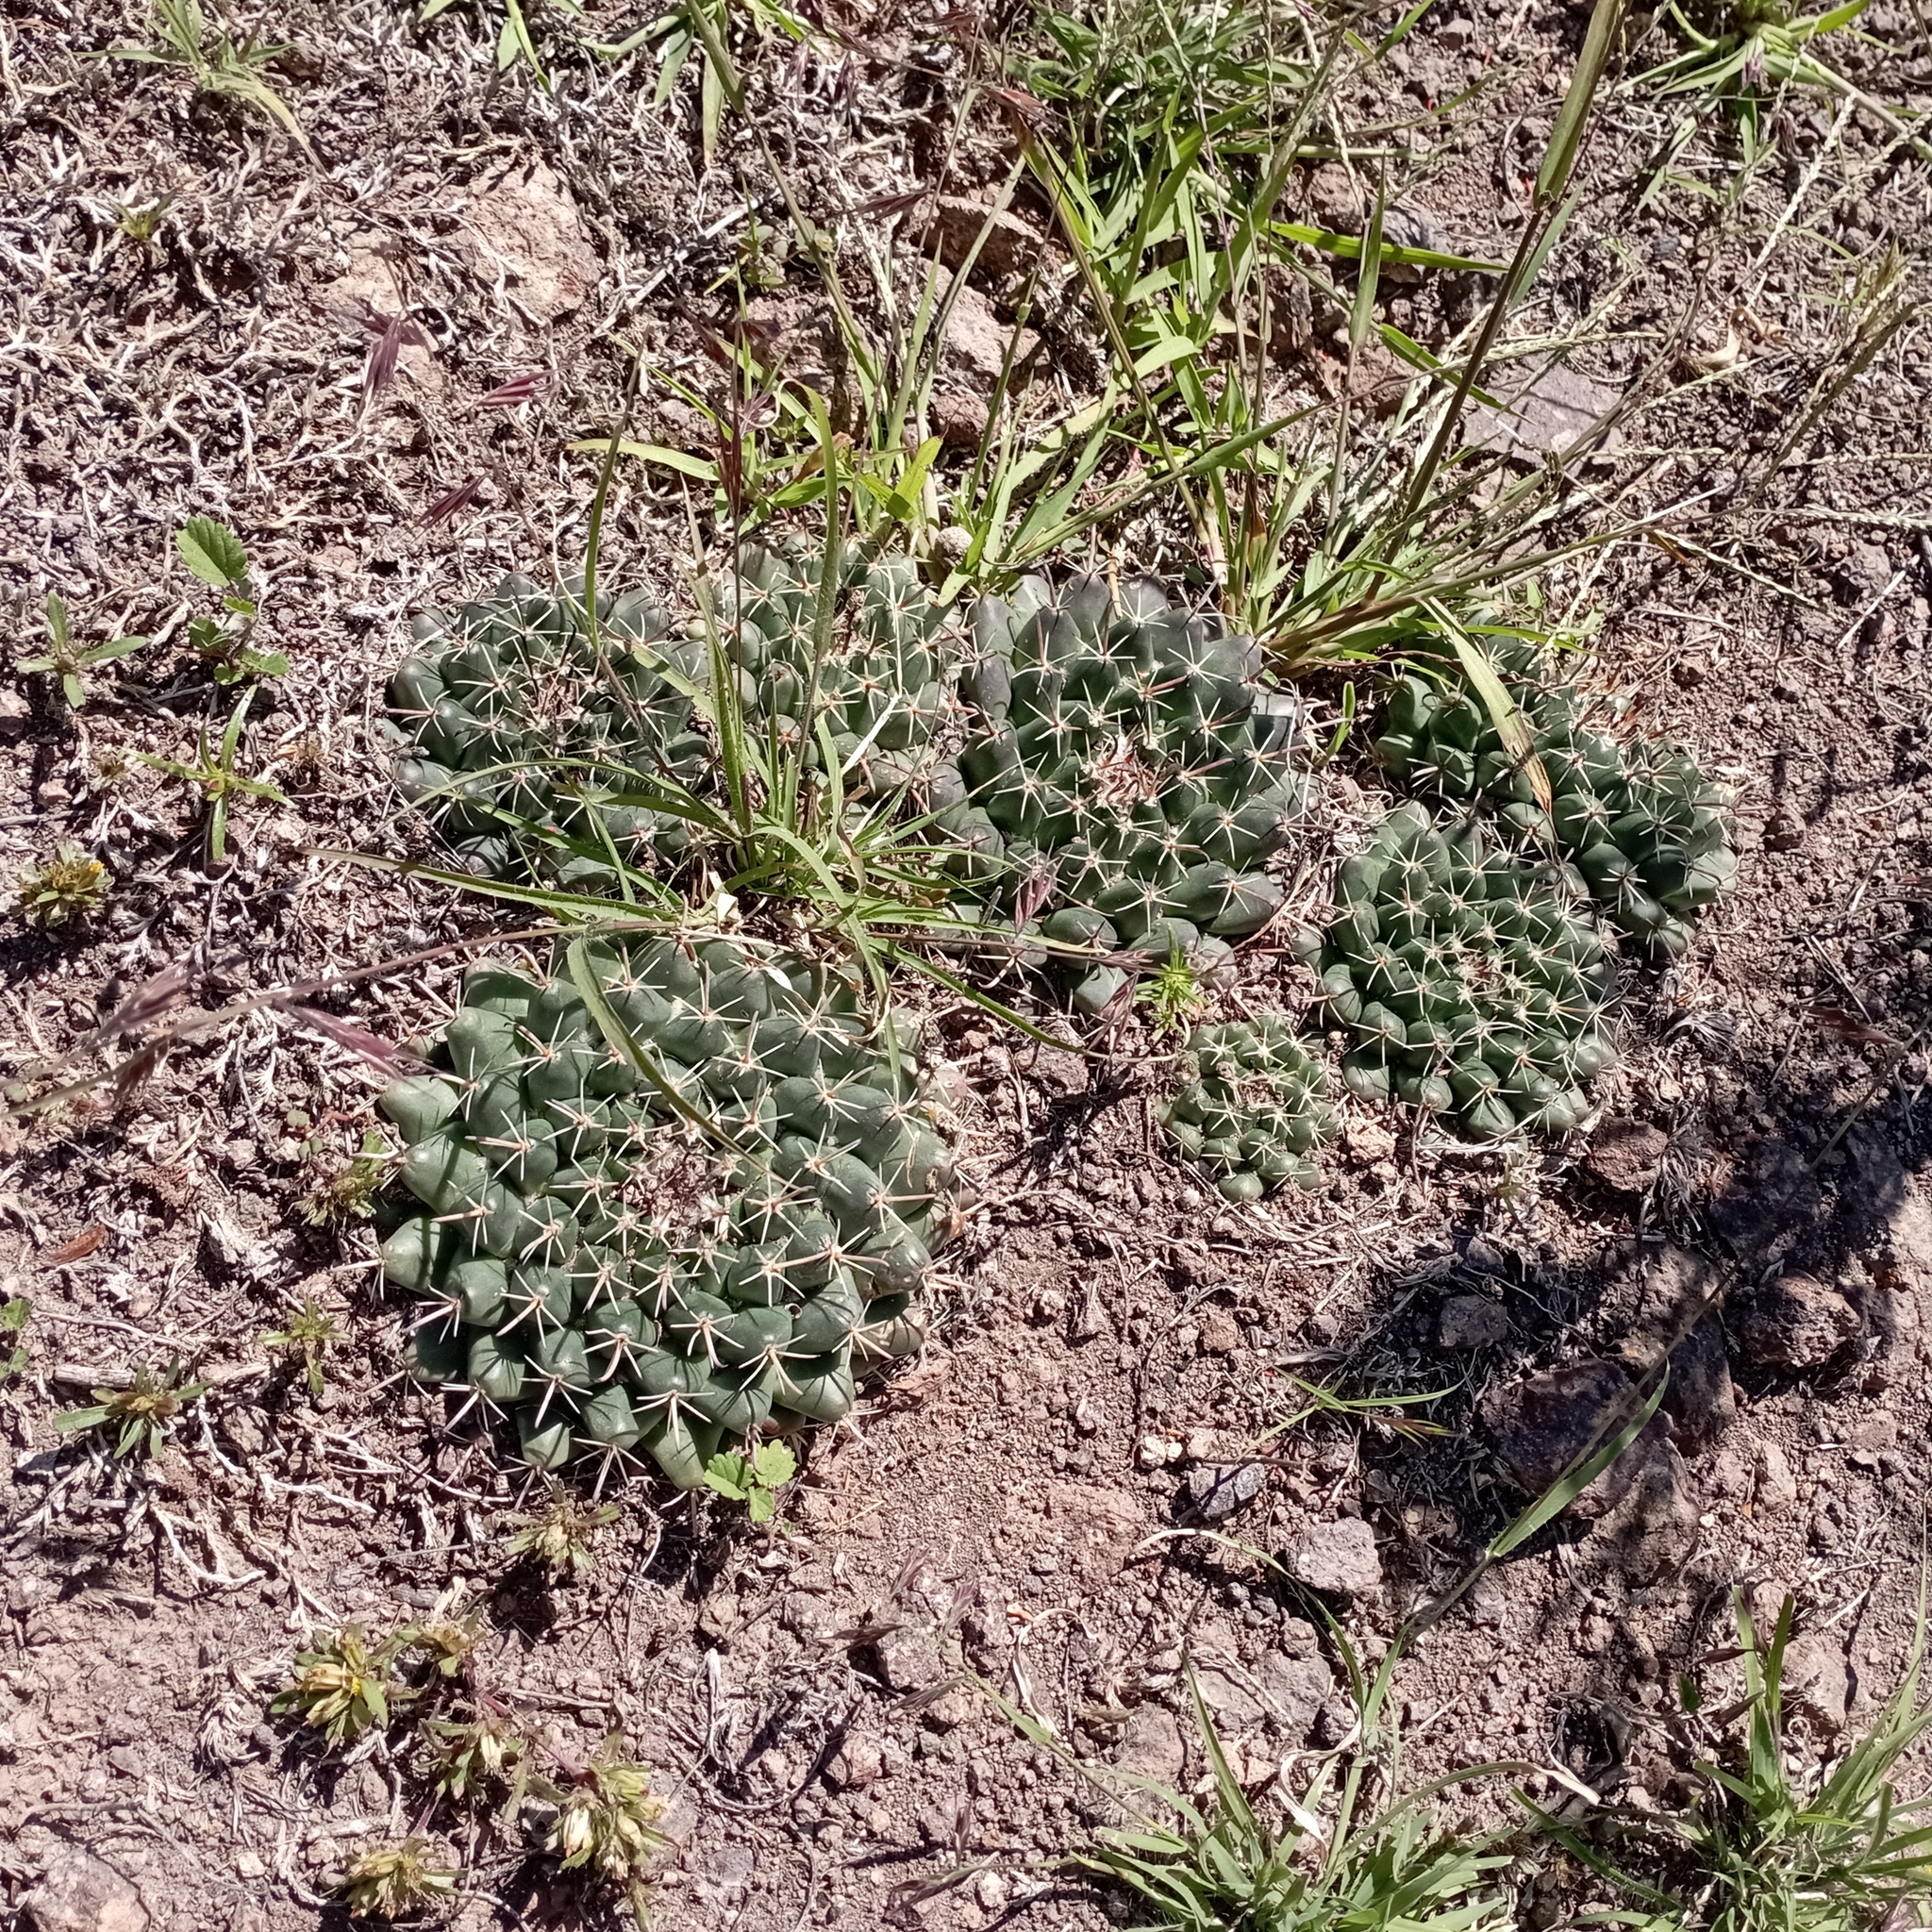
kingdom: Plantae
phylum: Tracheophyta
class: Magnoliopsida
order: Caryophyllales
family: Cactaceae
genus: Mammillaria
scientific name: Mammillaria uncinata
